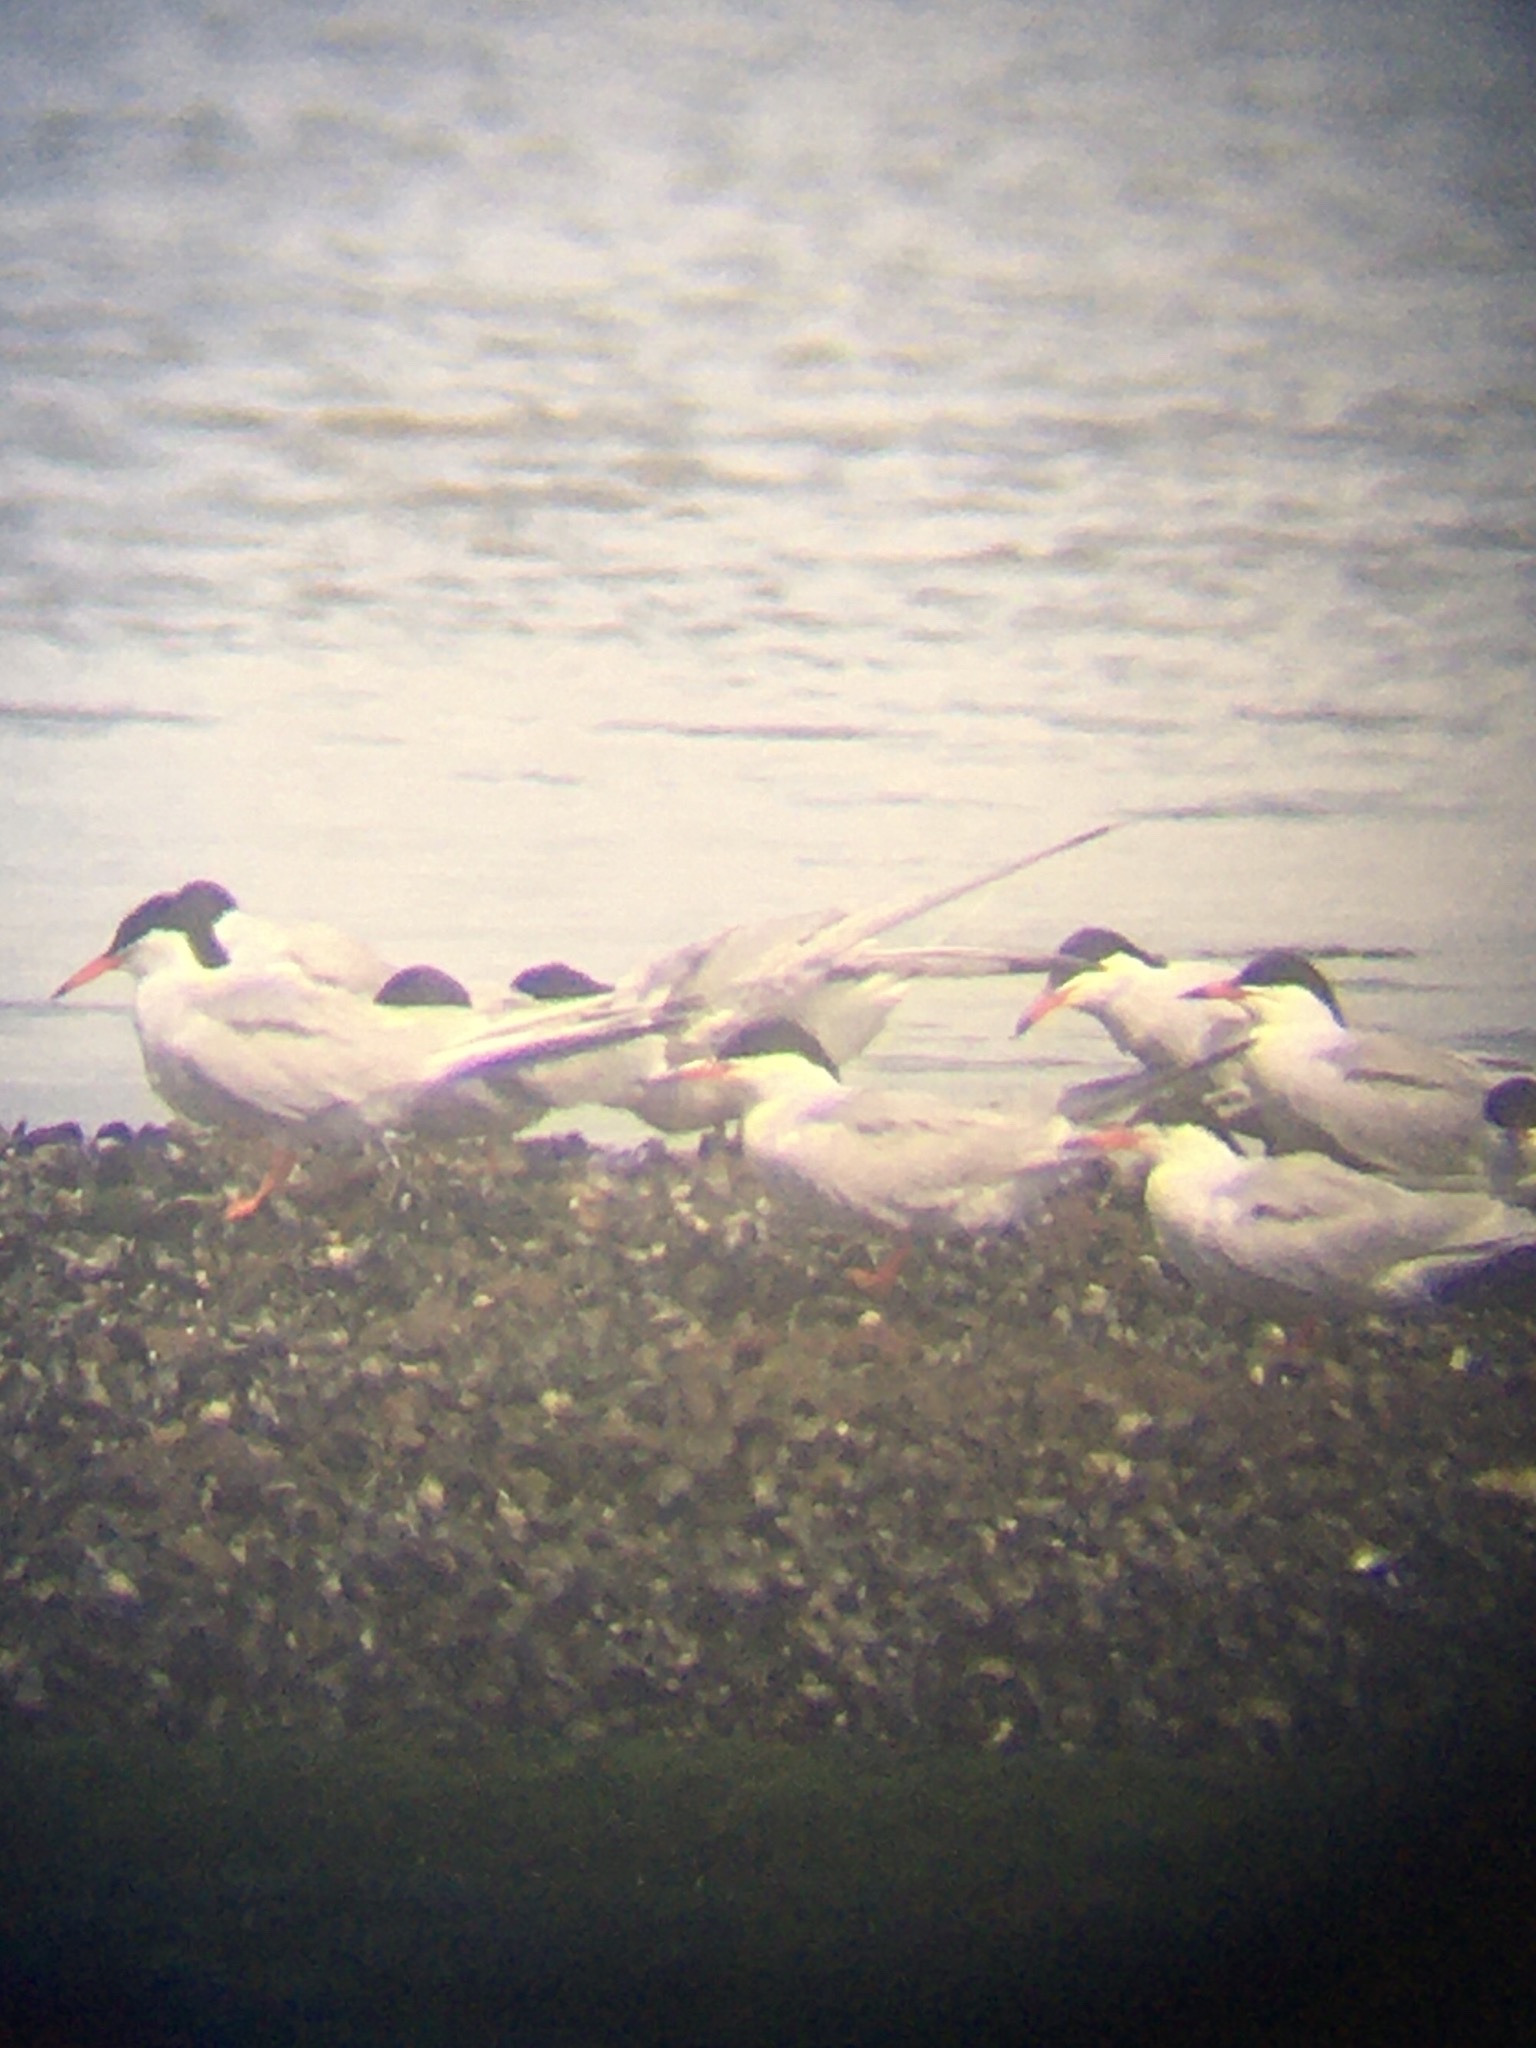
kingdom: Animalia
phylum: Chordata
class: Aves
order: Charadriiformes
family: Laridae
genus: Sterna
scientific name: Sterna hirundo
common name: Common tern
